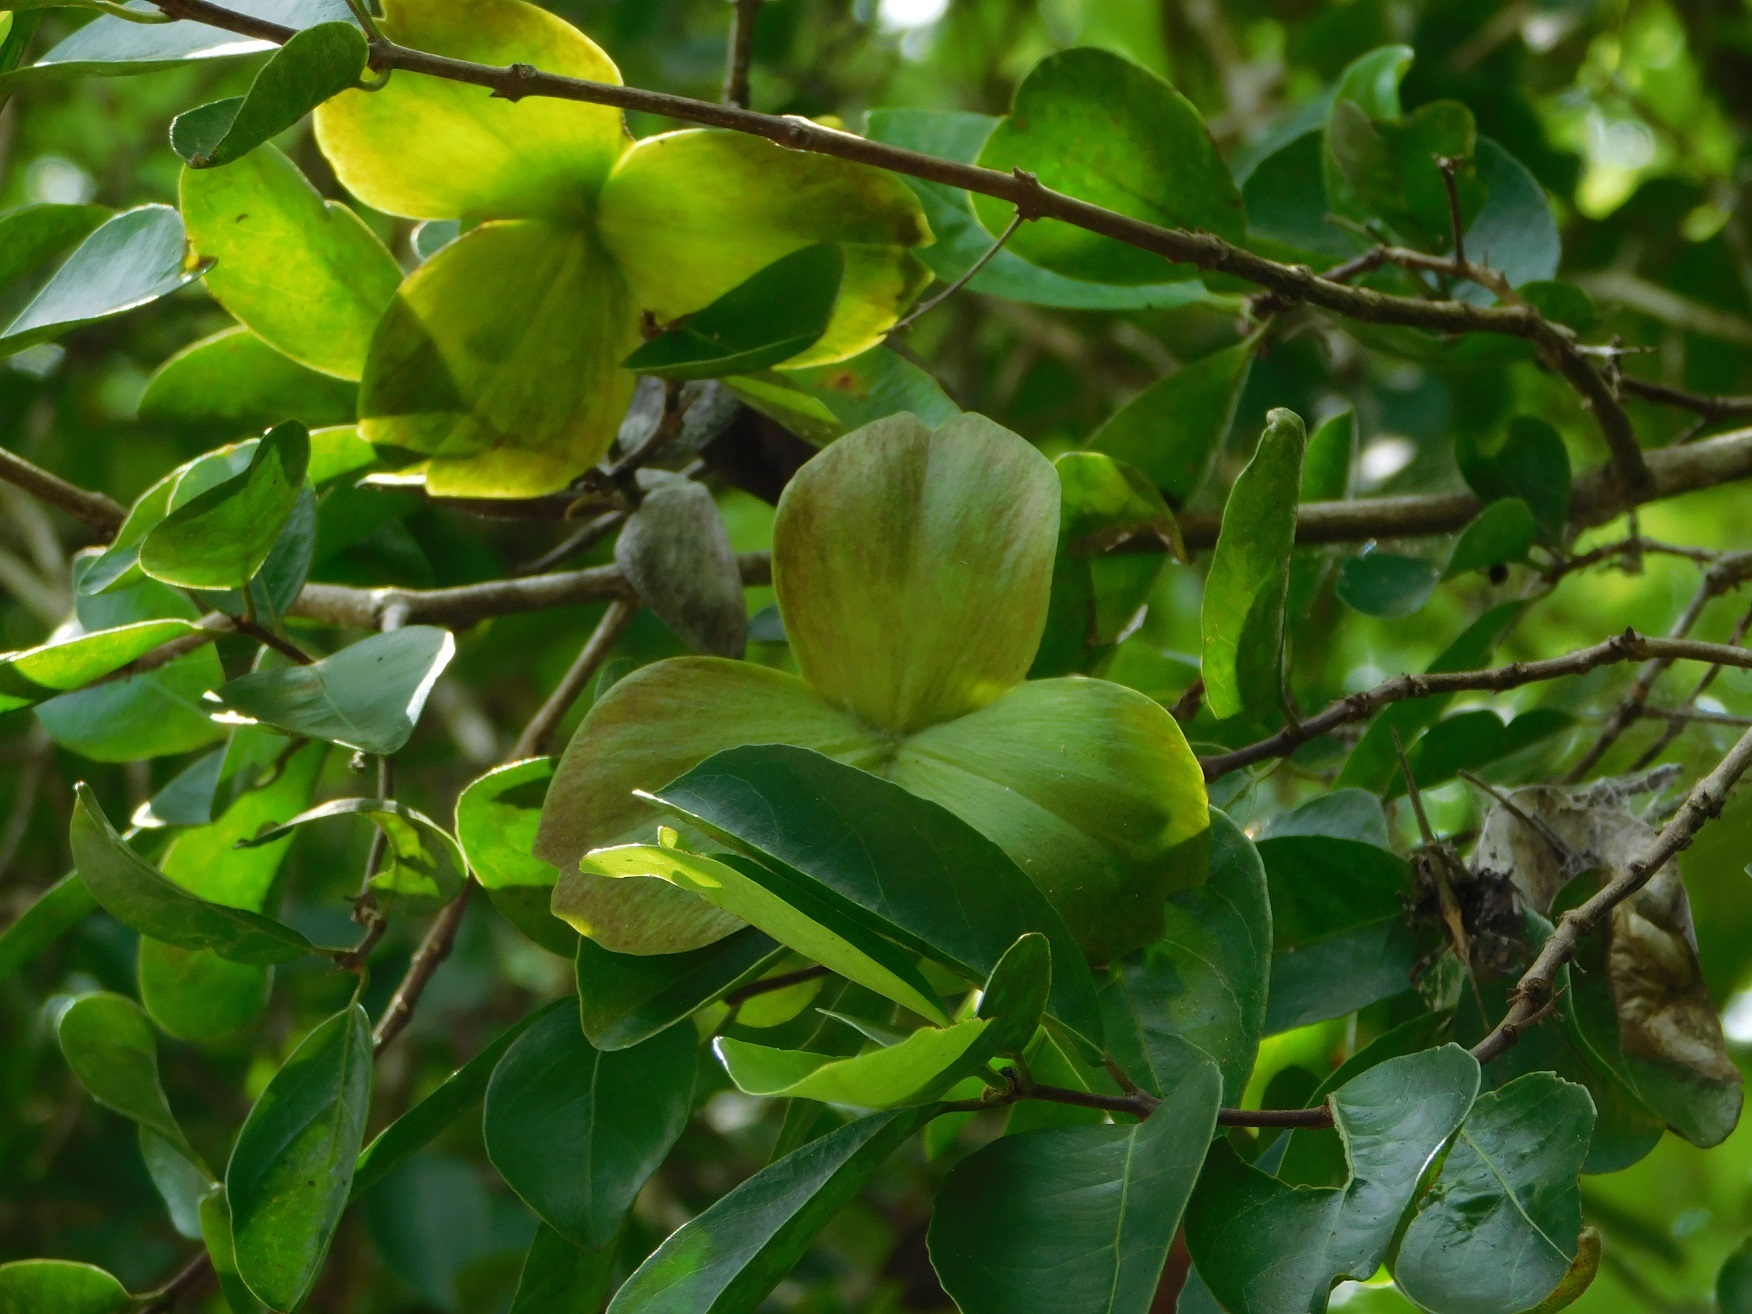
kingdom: Plantae
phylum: Tracheophyta
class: Magnoliopsida
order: Celastrales
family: Celastraceae
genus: Semialarium
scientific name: Semialarium mexicanum
